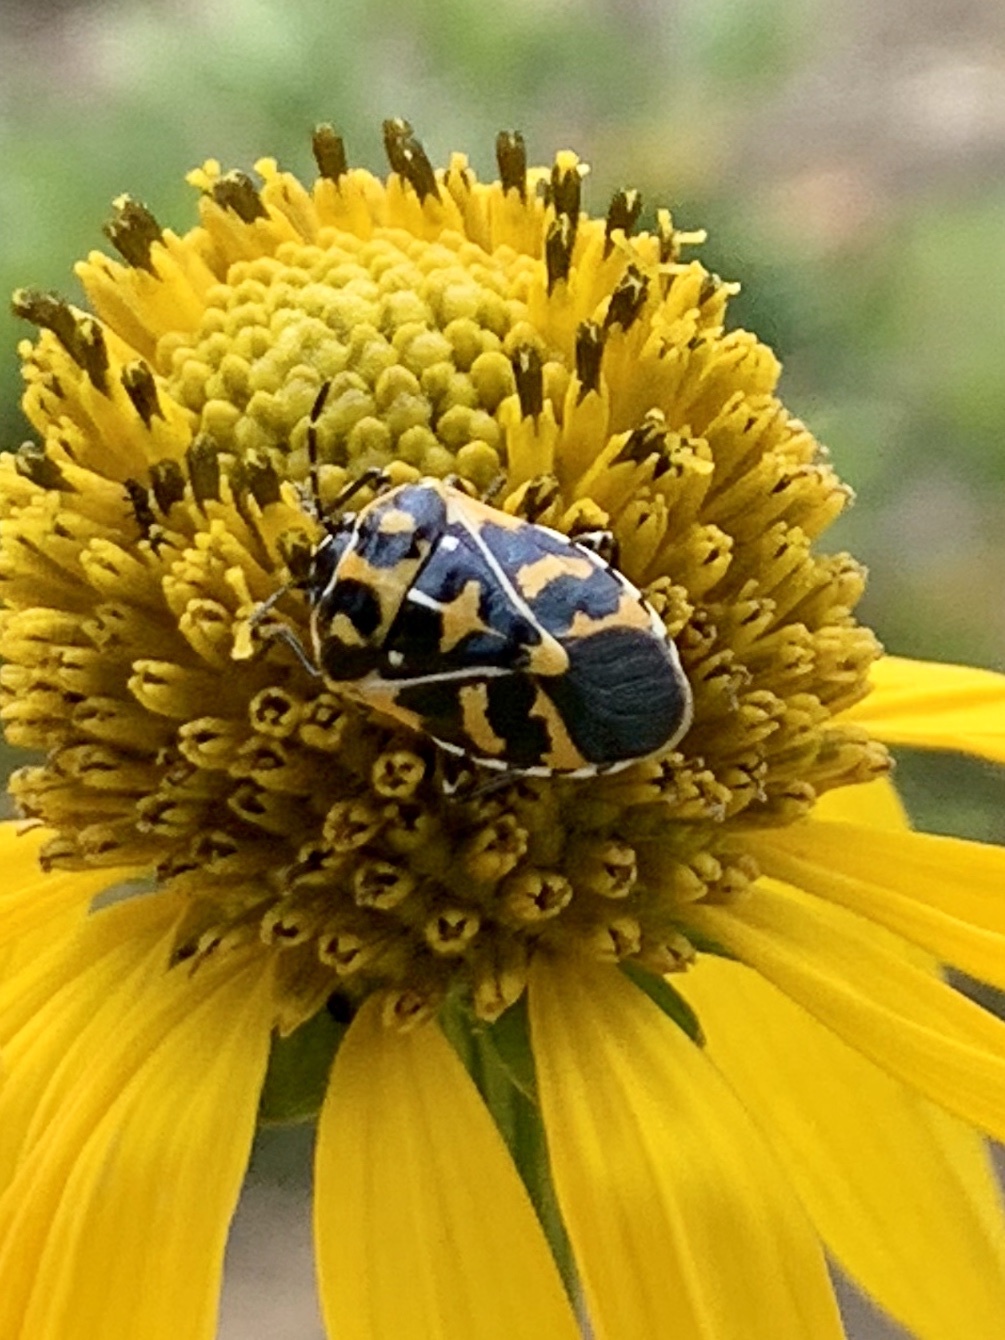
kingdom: Animalia
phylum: Arthropoda
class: Insecta
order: Hemiptera
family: Pentatomidae
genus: Murgantia
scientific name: Murgantia histrionica
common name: Harlequin bug
